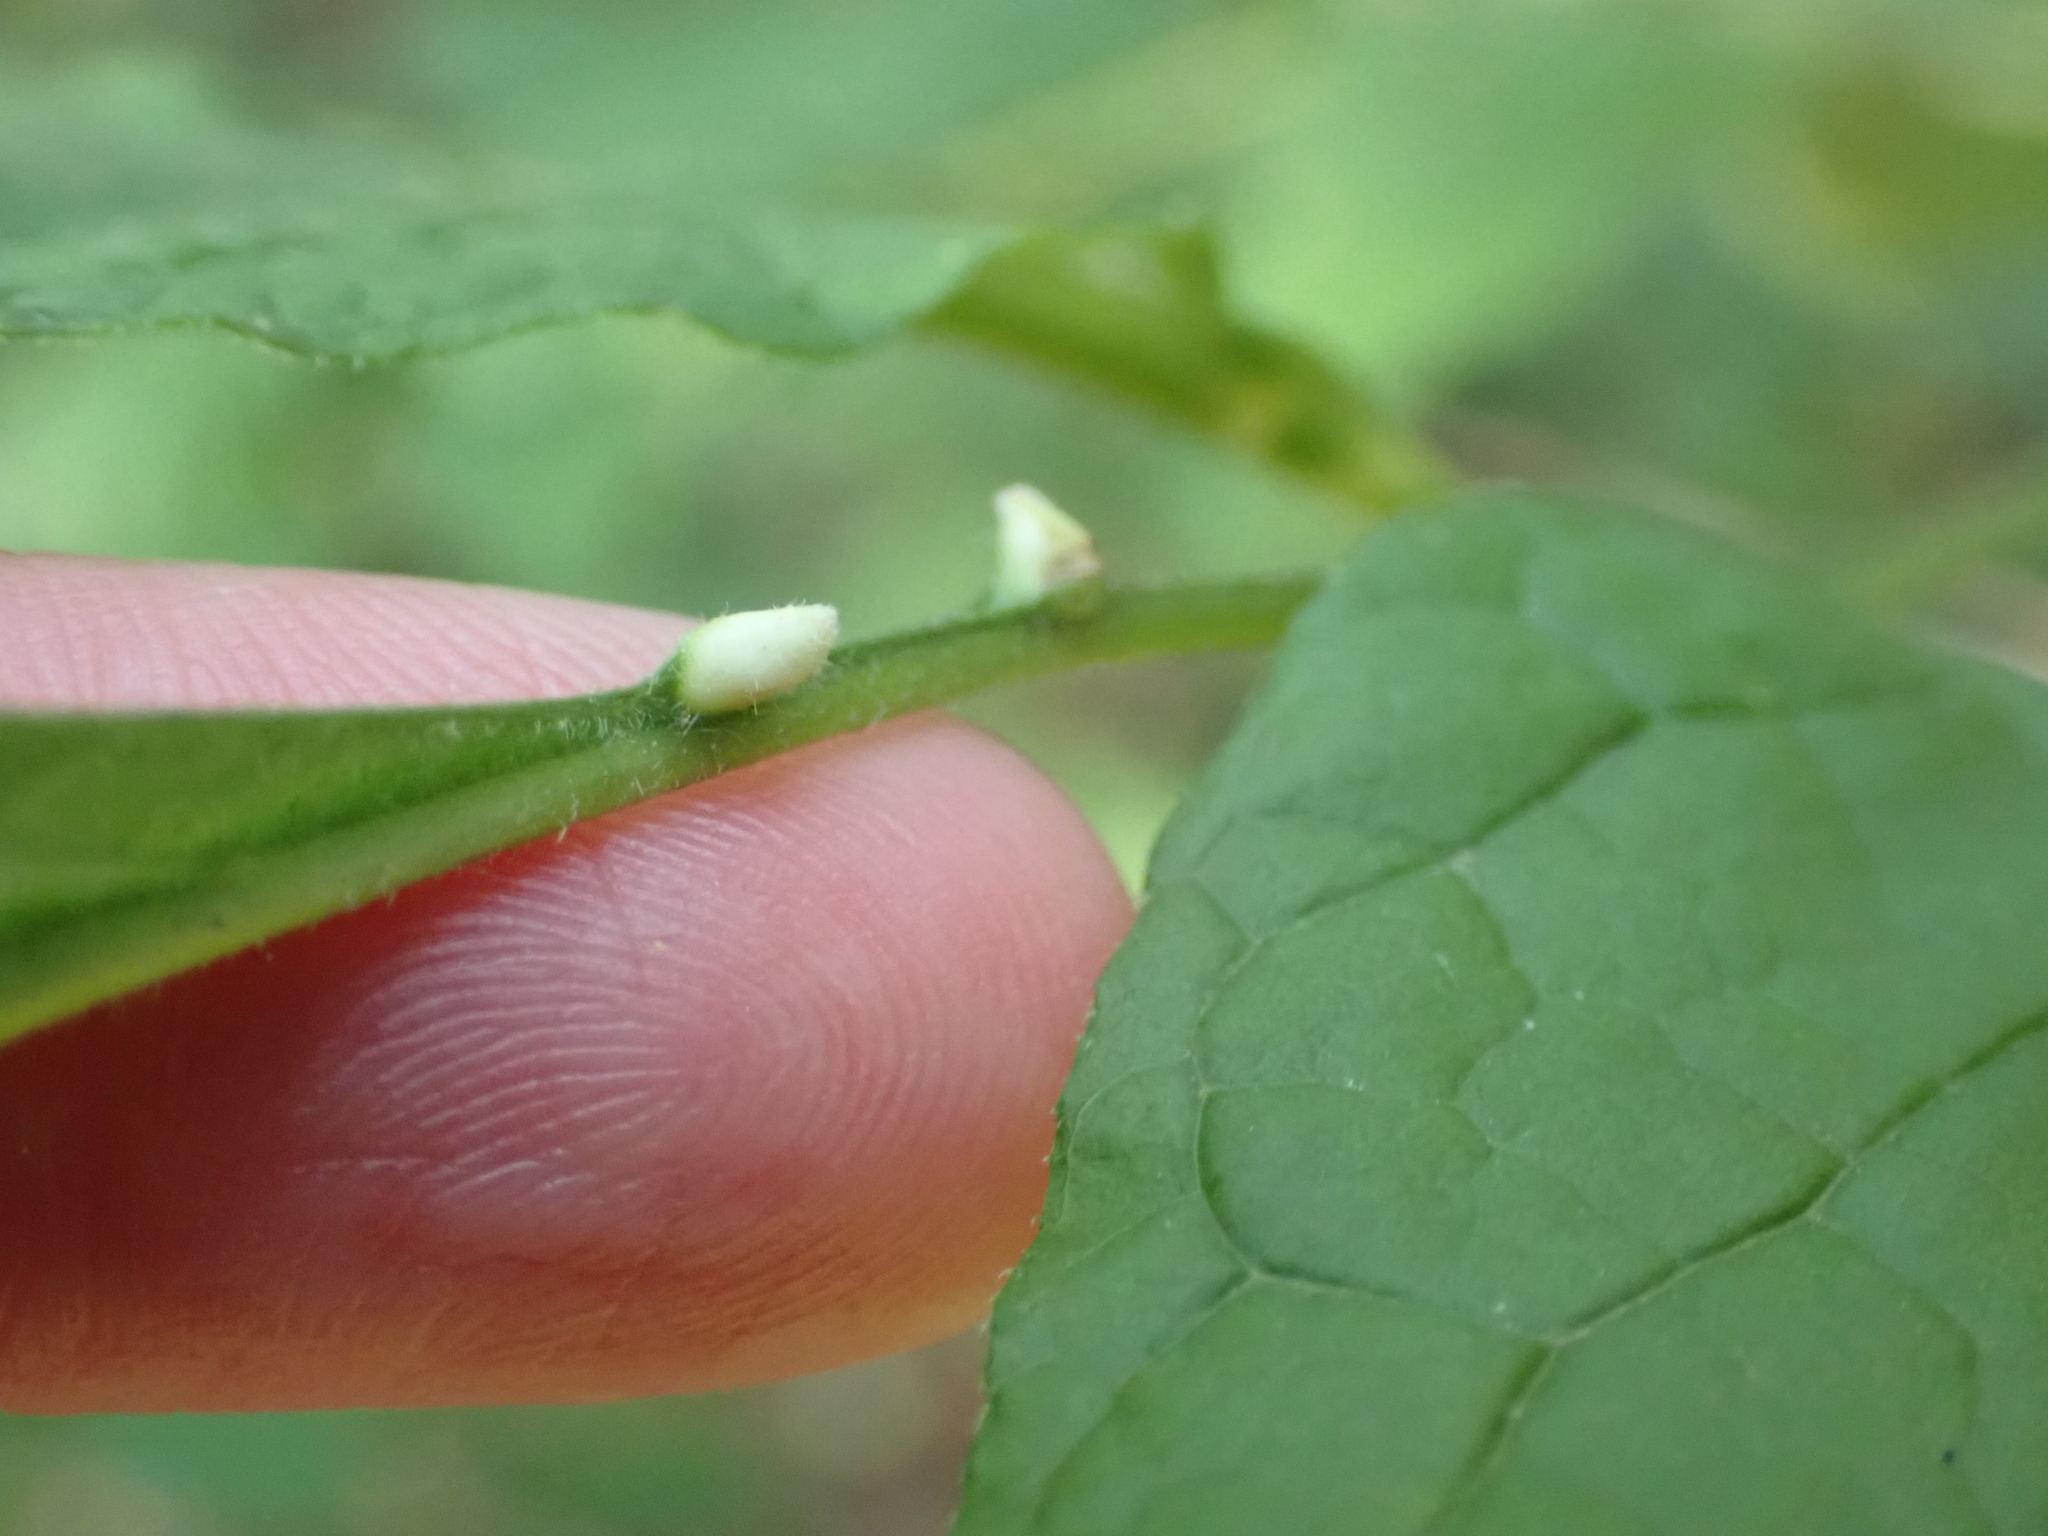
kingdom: Animalia
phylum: Arthropoda
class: Arachnida
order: Trombidiformes
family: Eriophyidae
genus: Aceria
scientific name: Aceria fraxinicola
